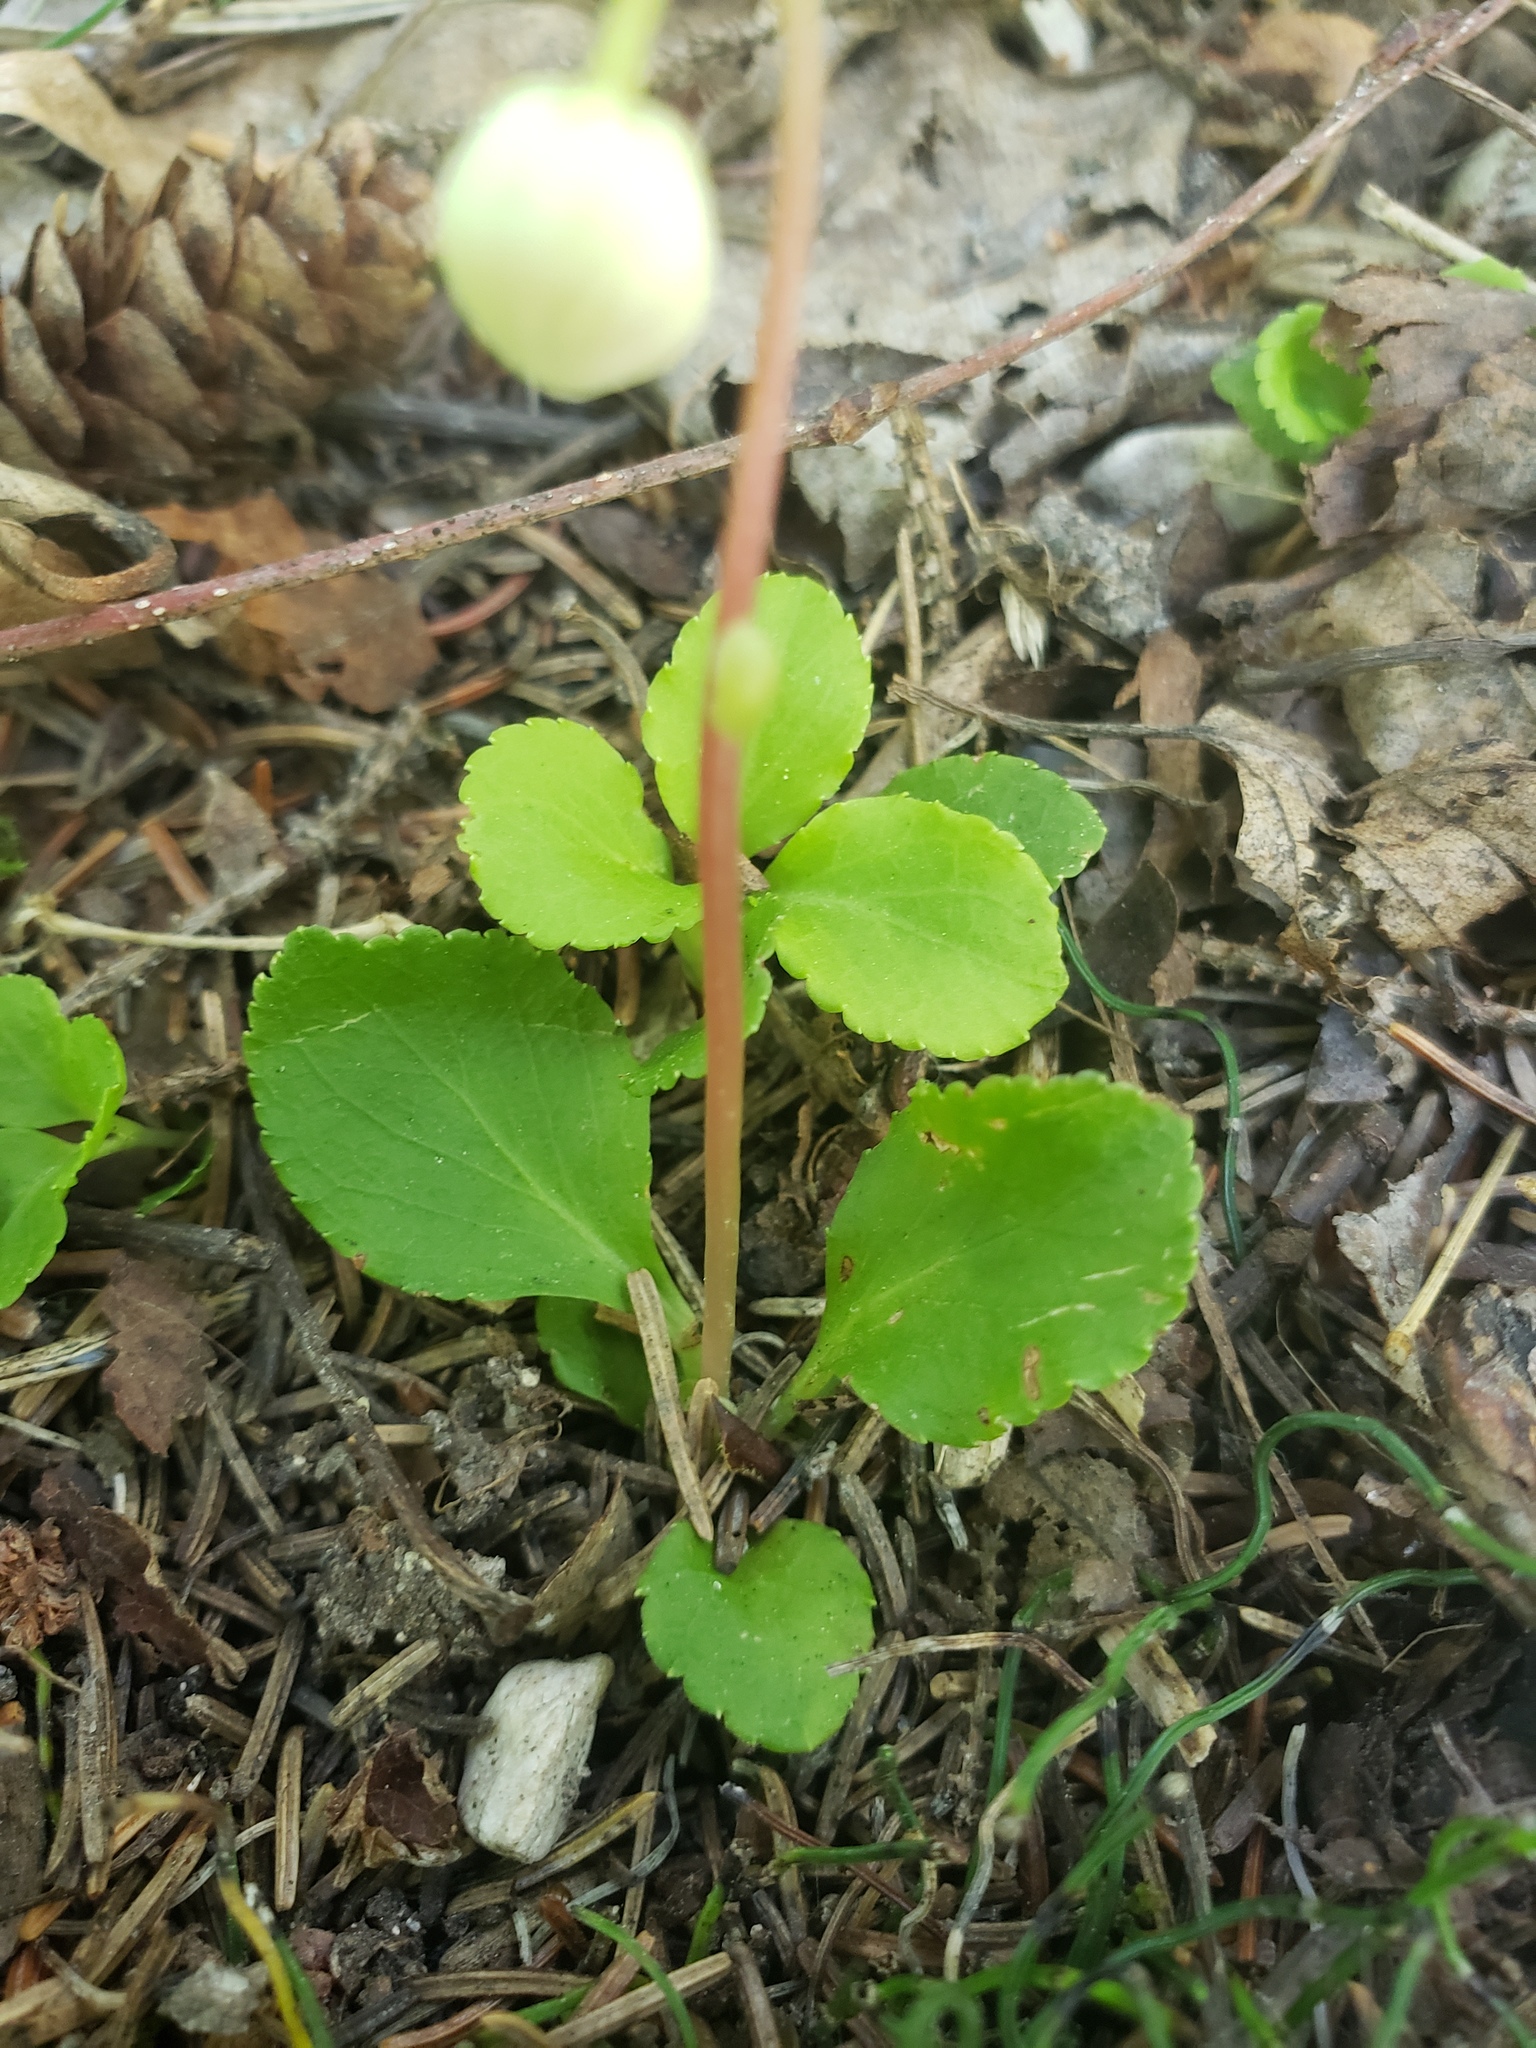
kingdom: Plantae
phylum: Tracheophyta
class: Magnoliopsida
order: Ericales
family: Ericaceae
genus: Moneses
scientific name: Moneses uniflora
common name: One-flowered wintergreen
